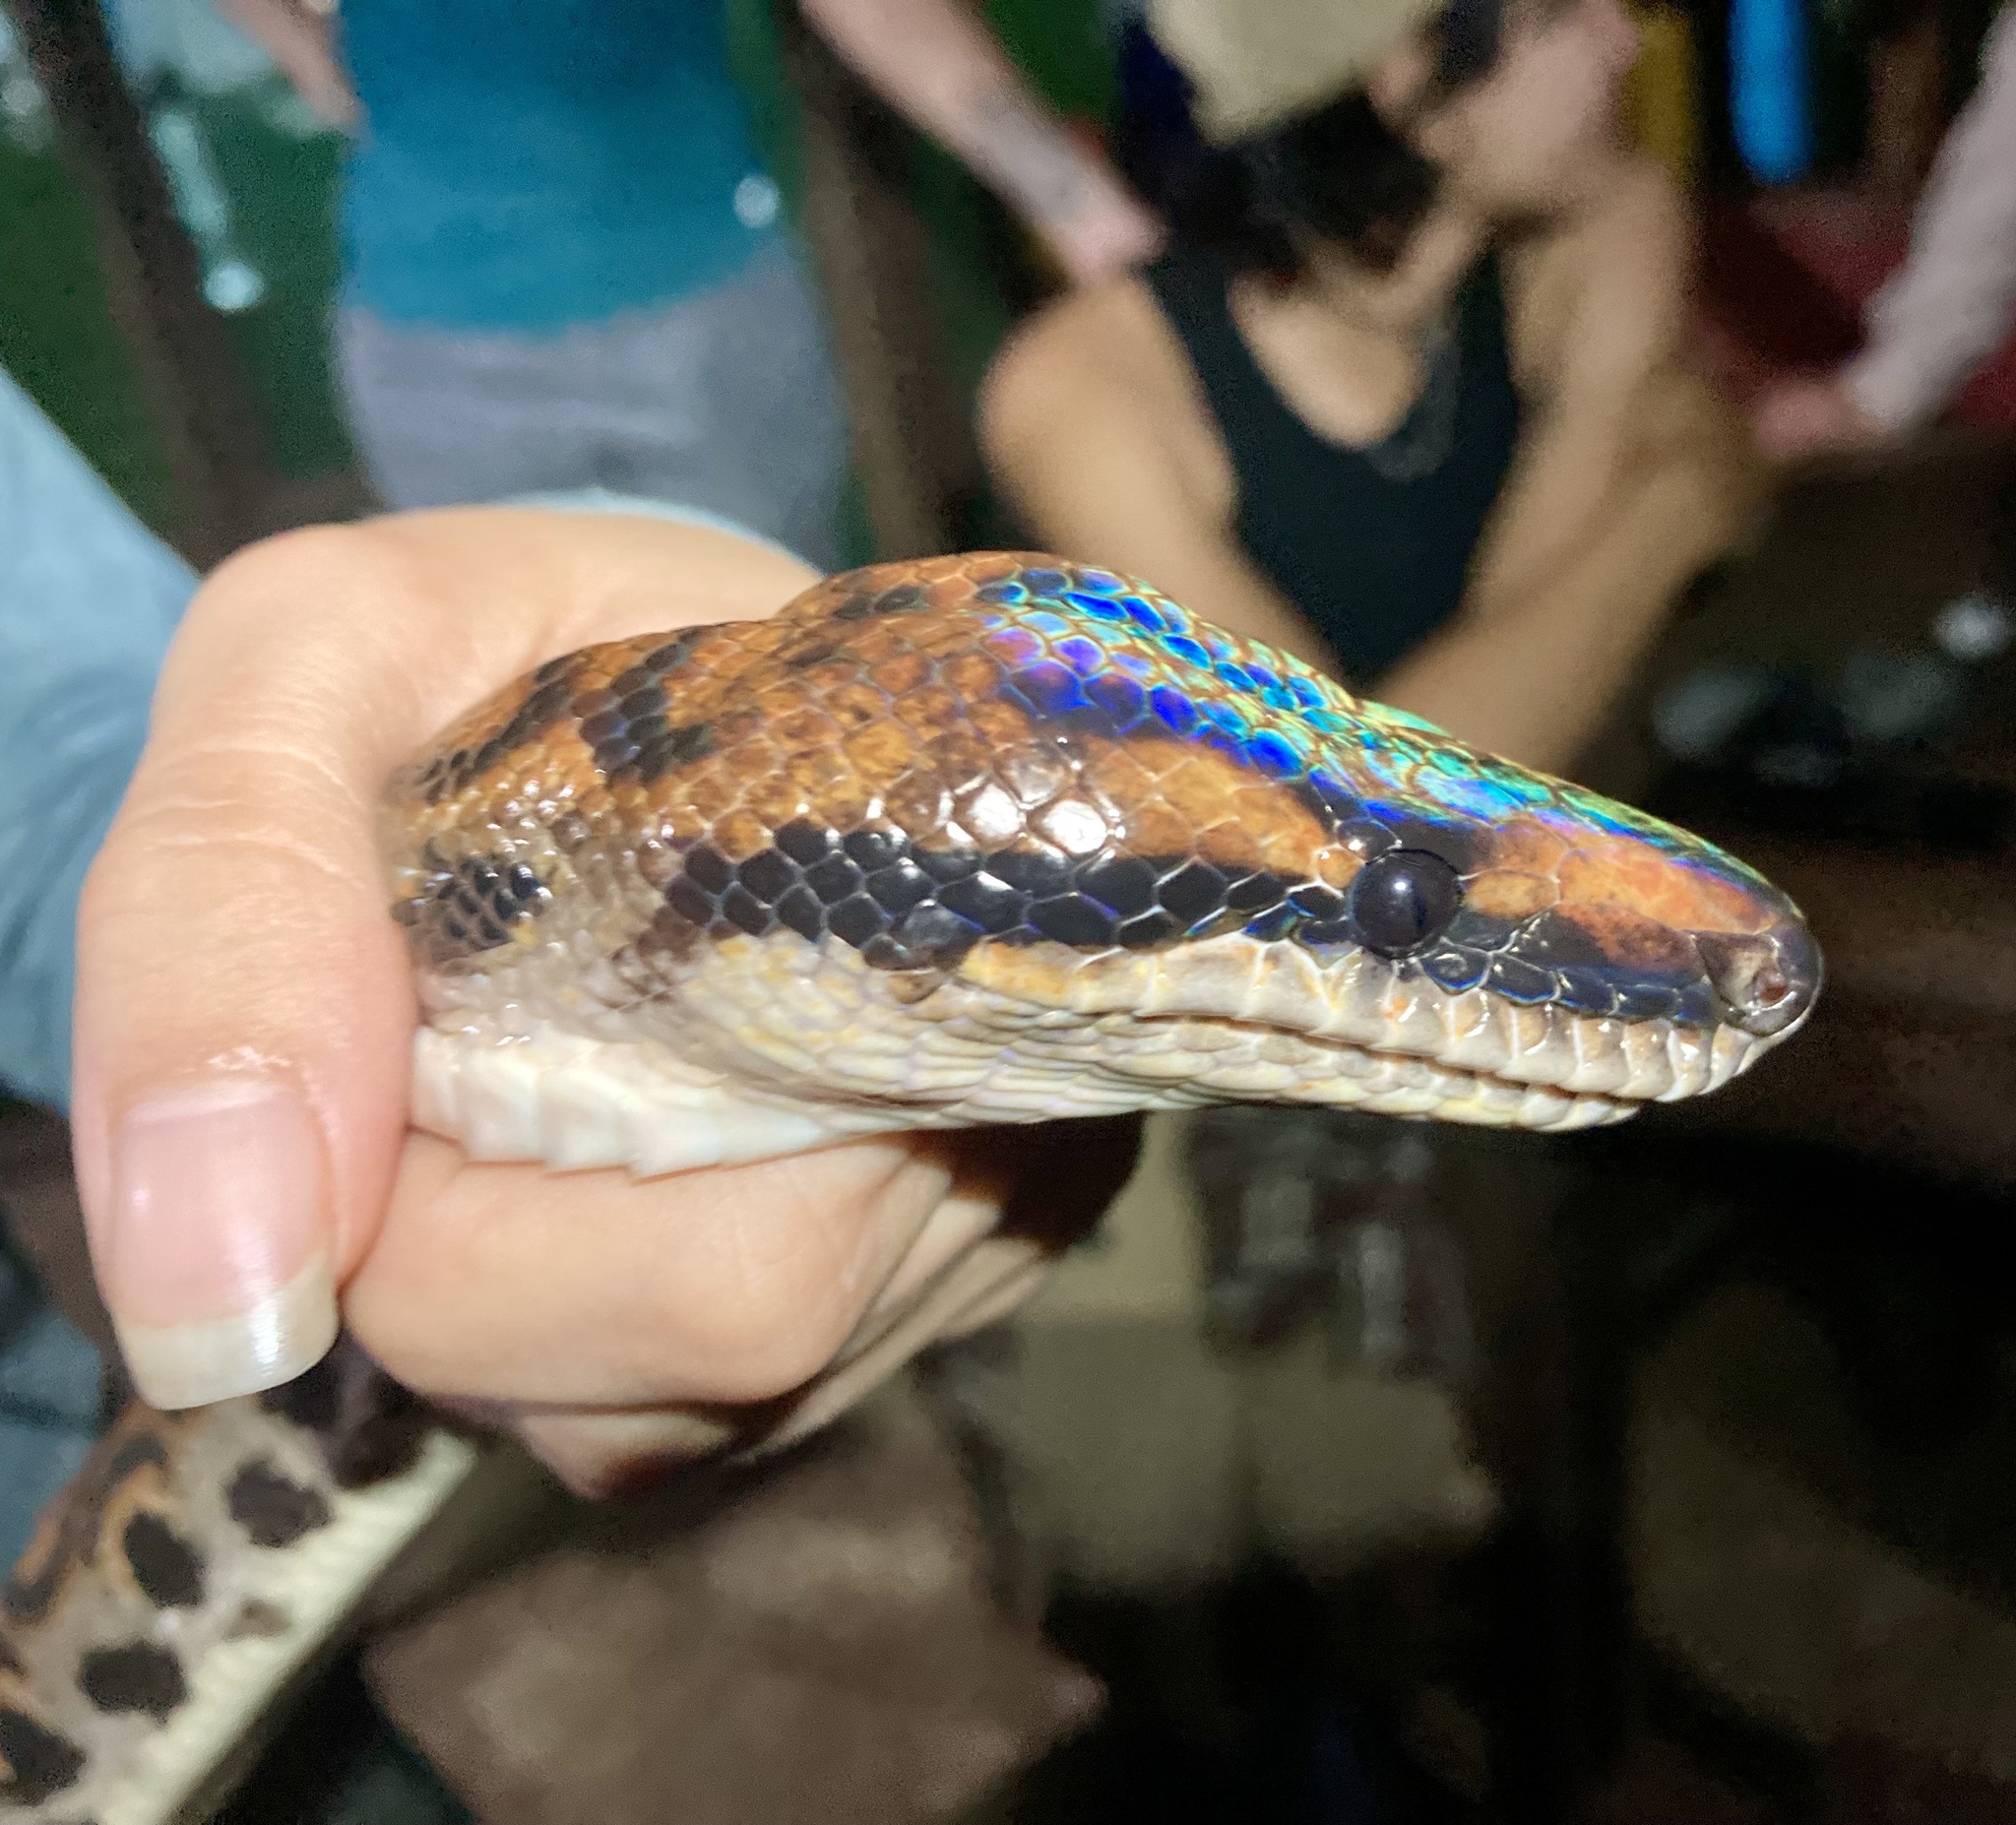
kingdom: Animalia
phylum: Chordata
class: Squamata
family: Boidae
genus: Epicrates
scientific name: Epicrates cenchria
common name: Rainbow boa
